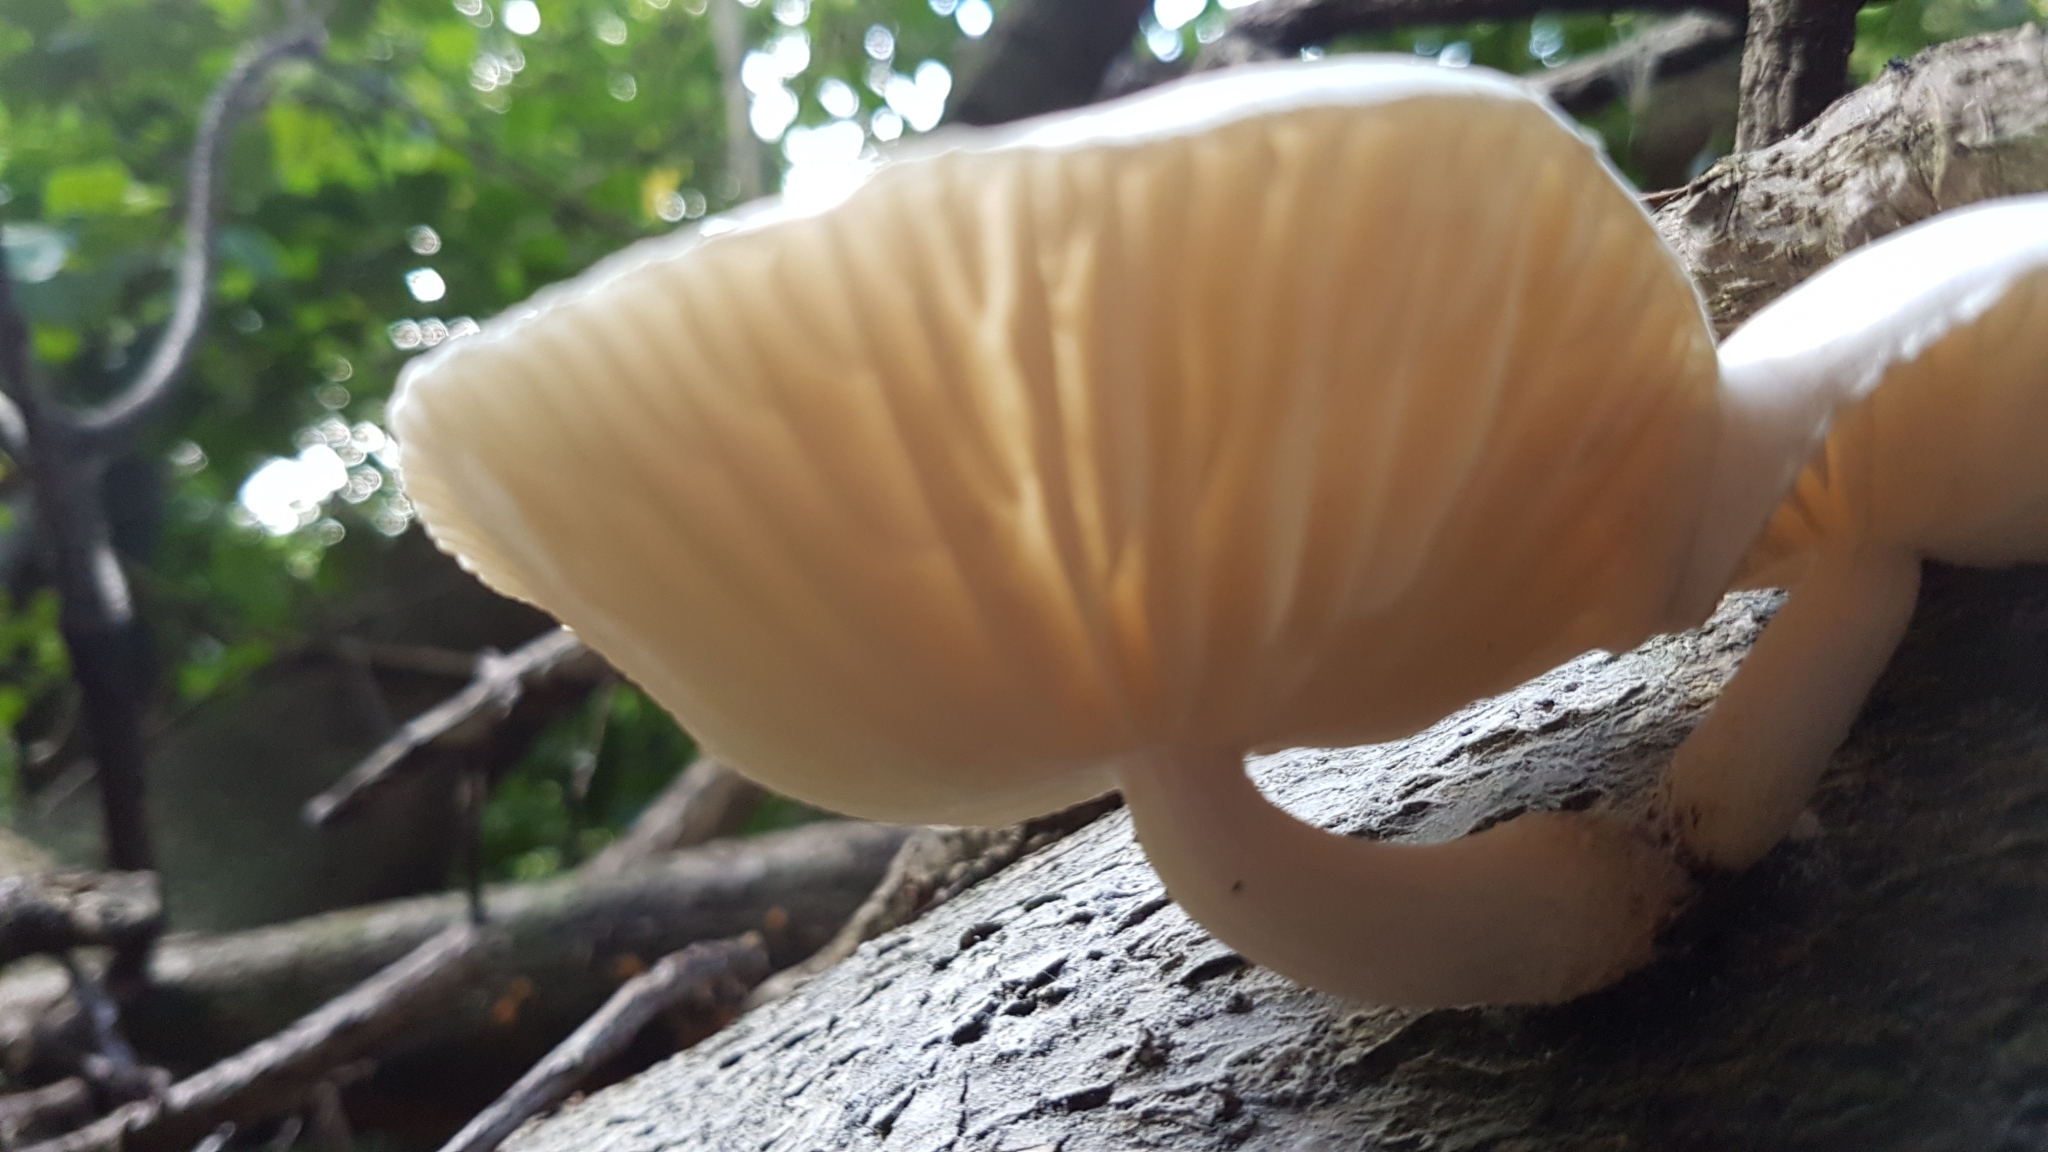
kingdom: Fungi
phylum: Basidiomycota
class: Agaricomycetes
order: Agaricales
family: Physalacriaceae
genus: Oudemansiella
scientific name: Oudemansiella australis
